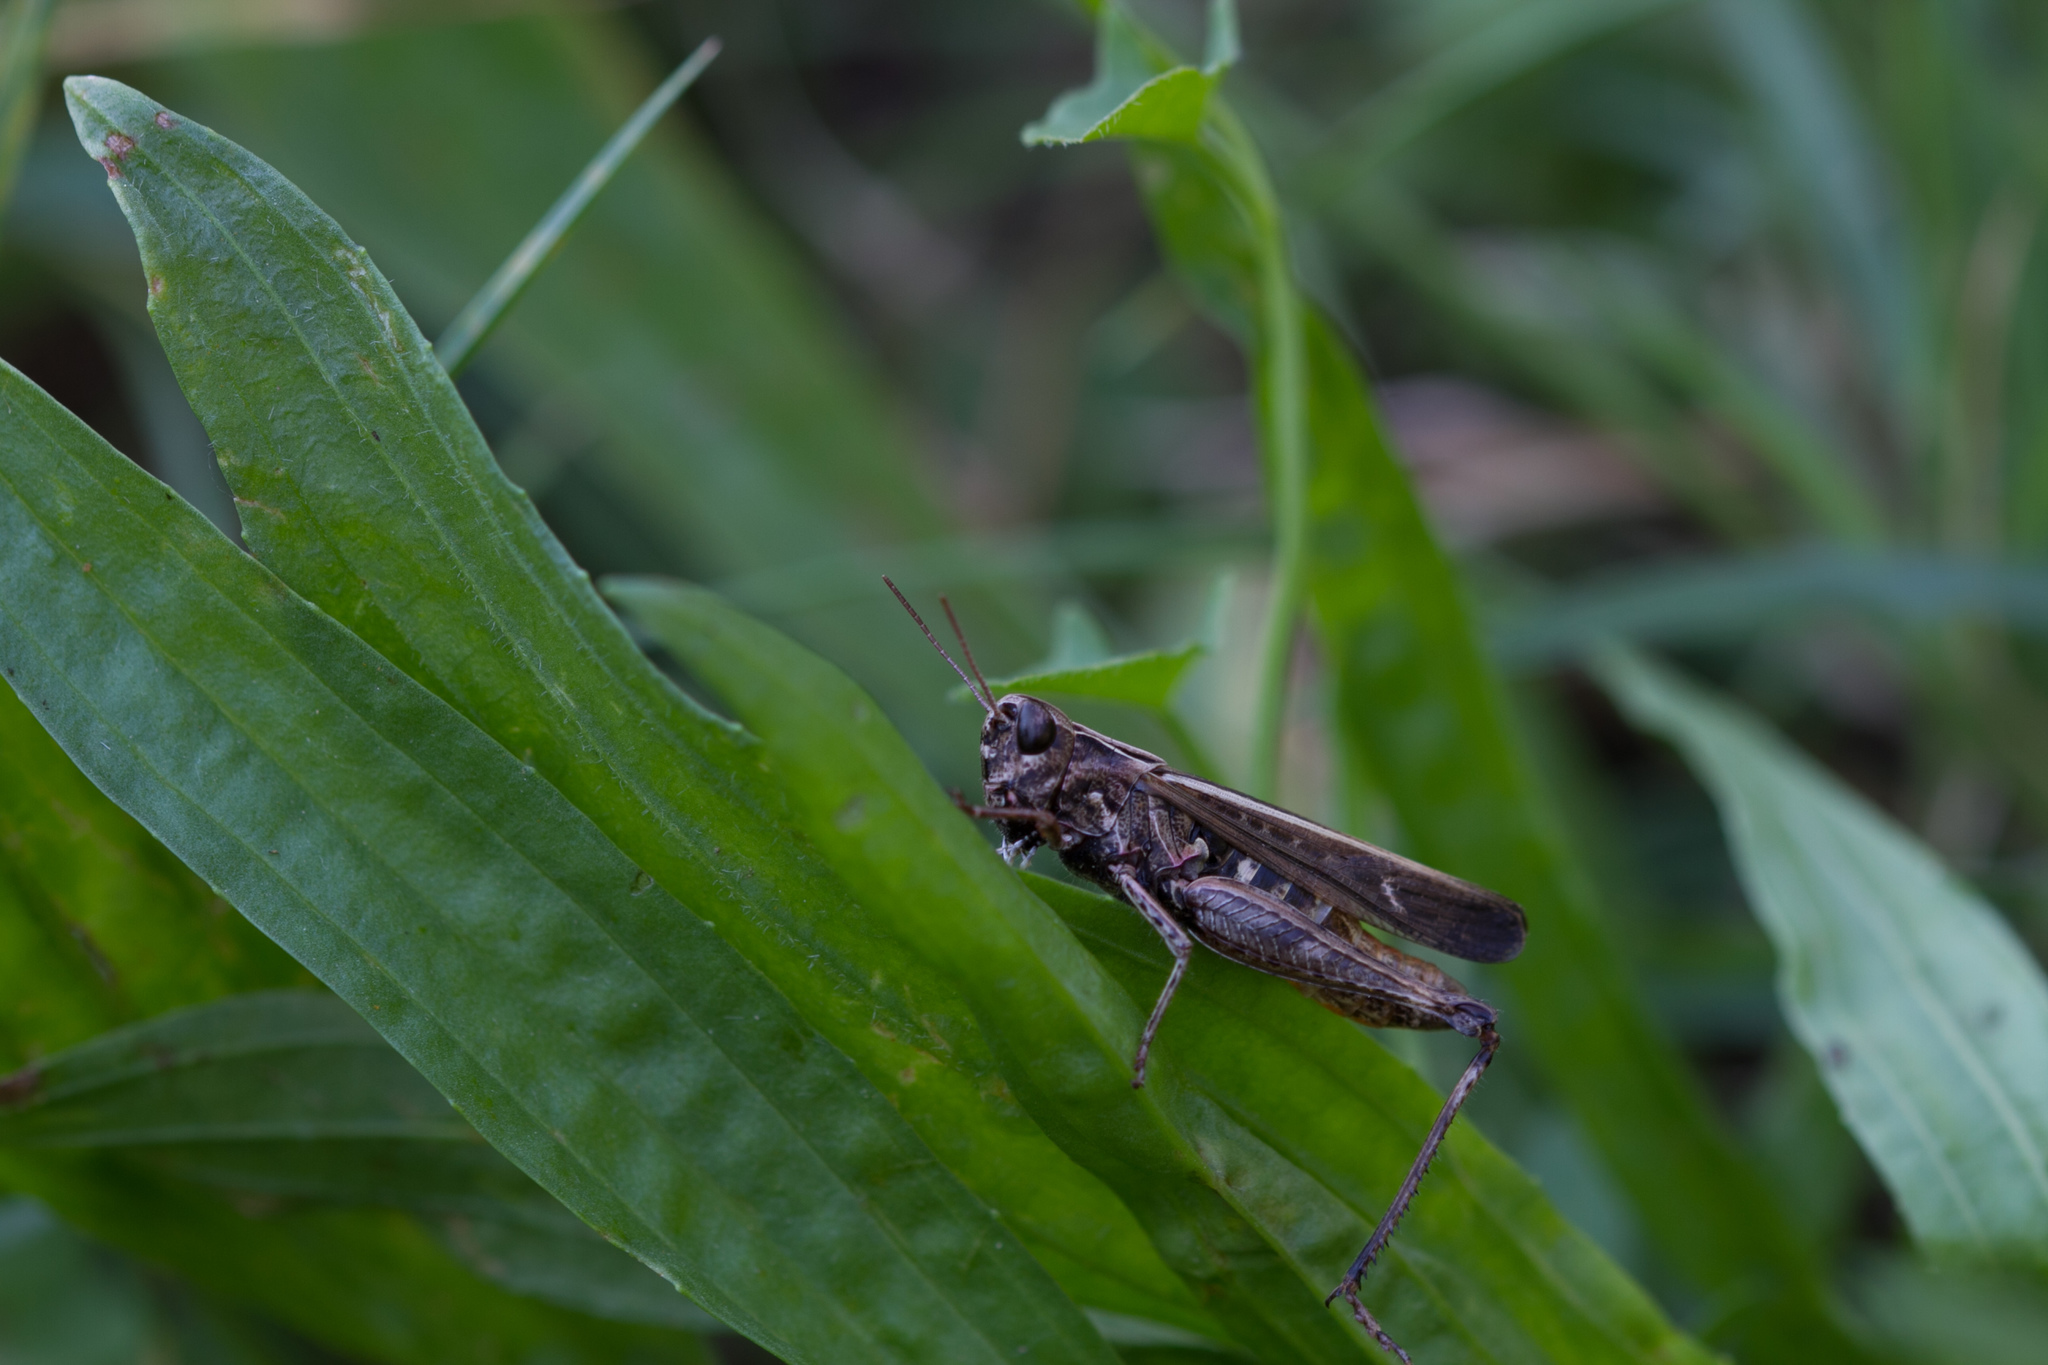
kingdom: Animalia
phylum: Arthropoda
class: Insecta
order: Orthoptera
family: Acrididae
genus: Omocestus
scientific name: Omocestus rufipes
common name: Woodland grasshopper
